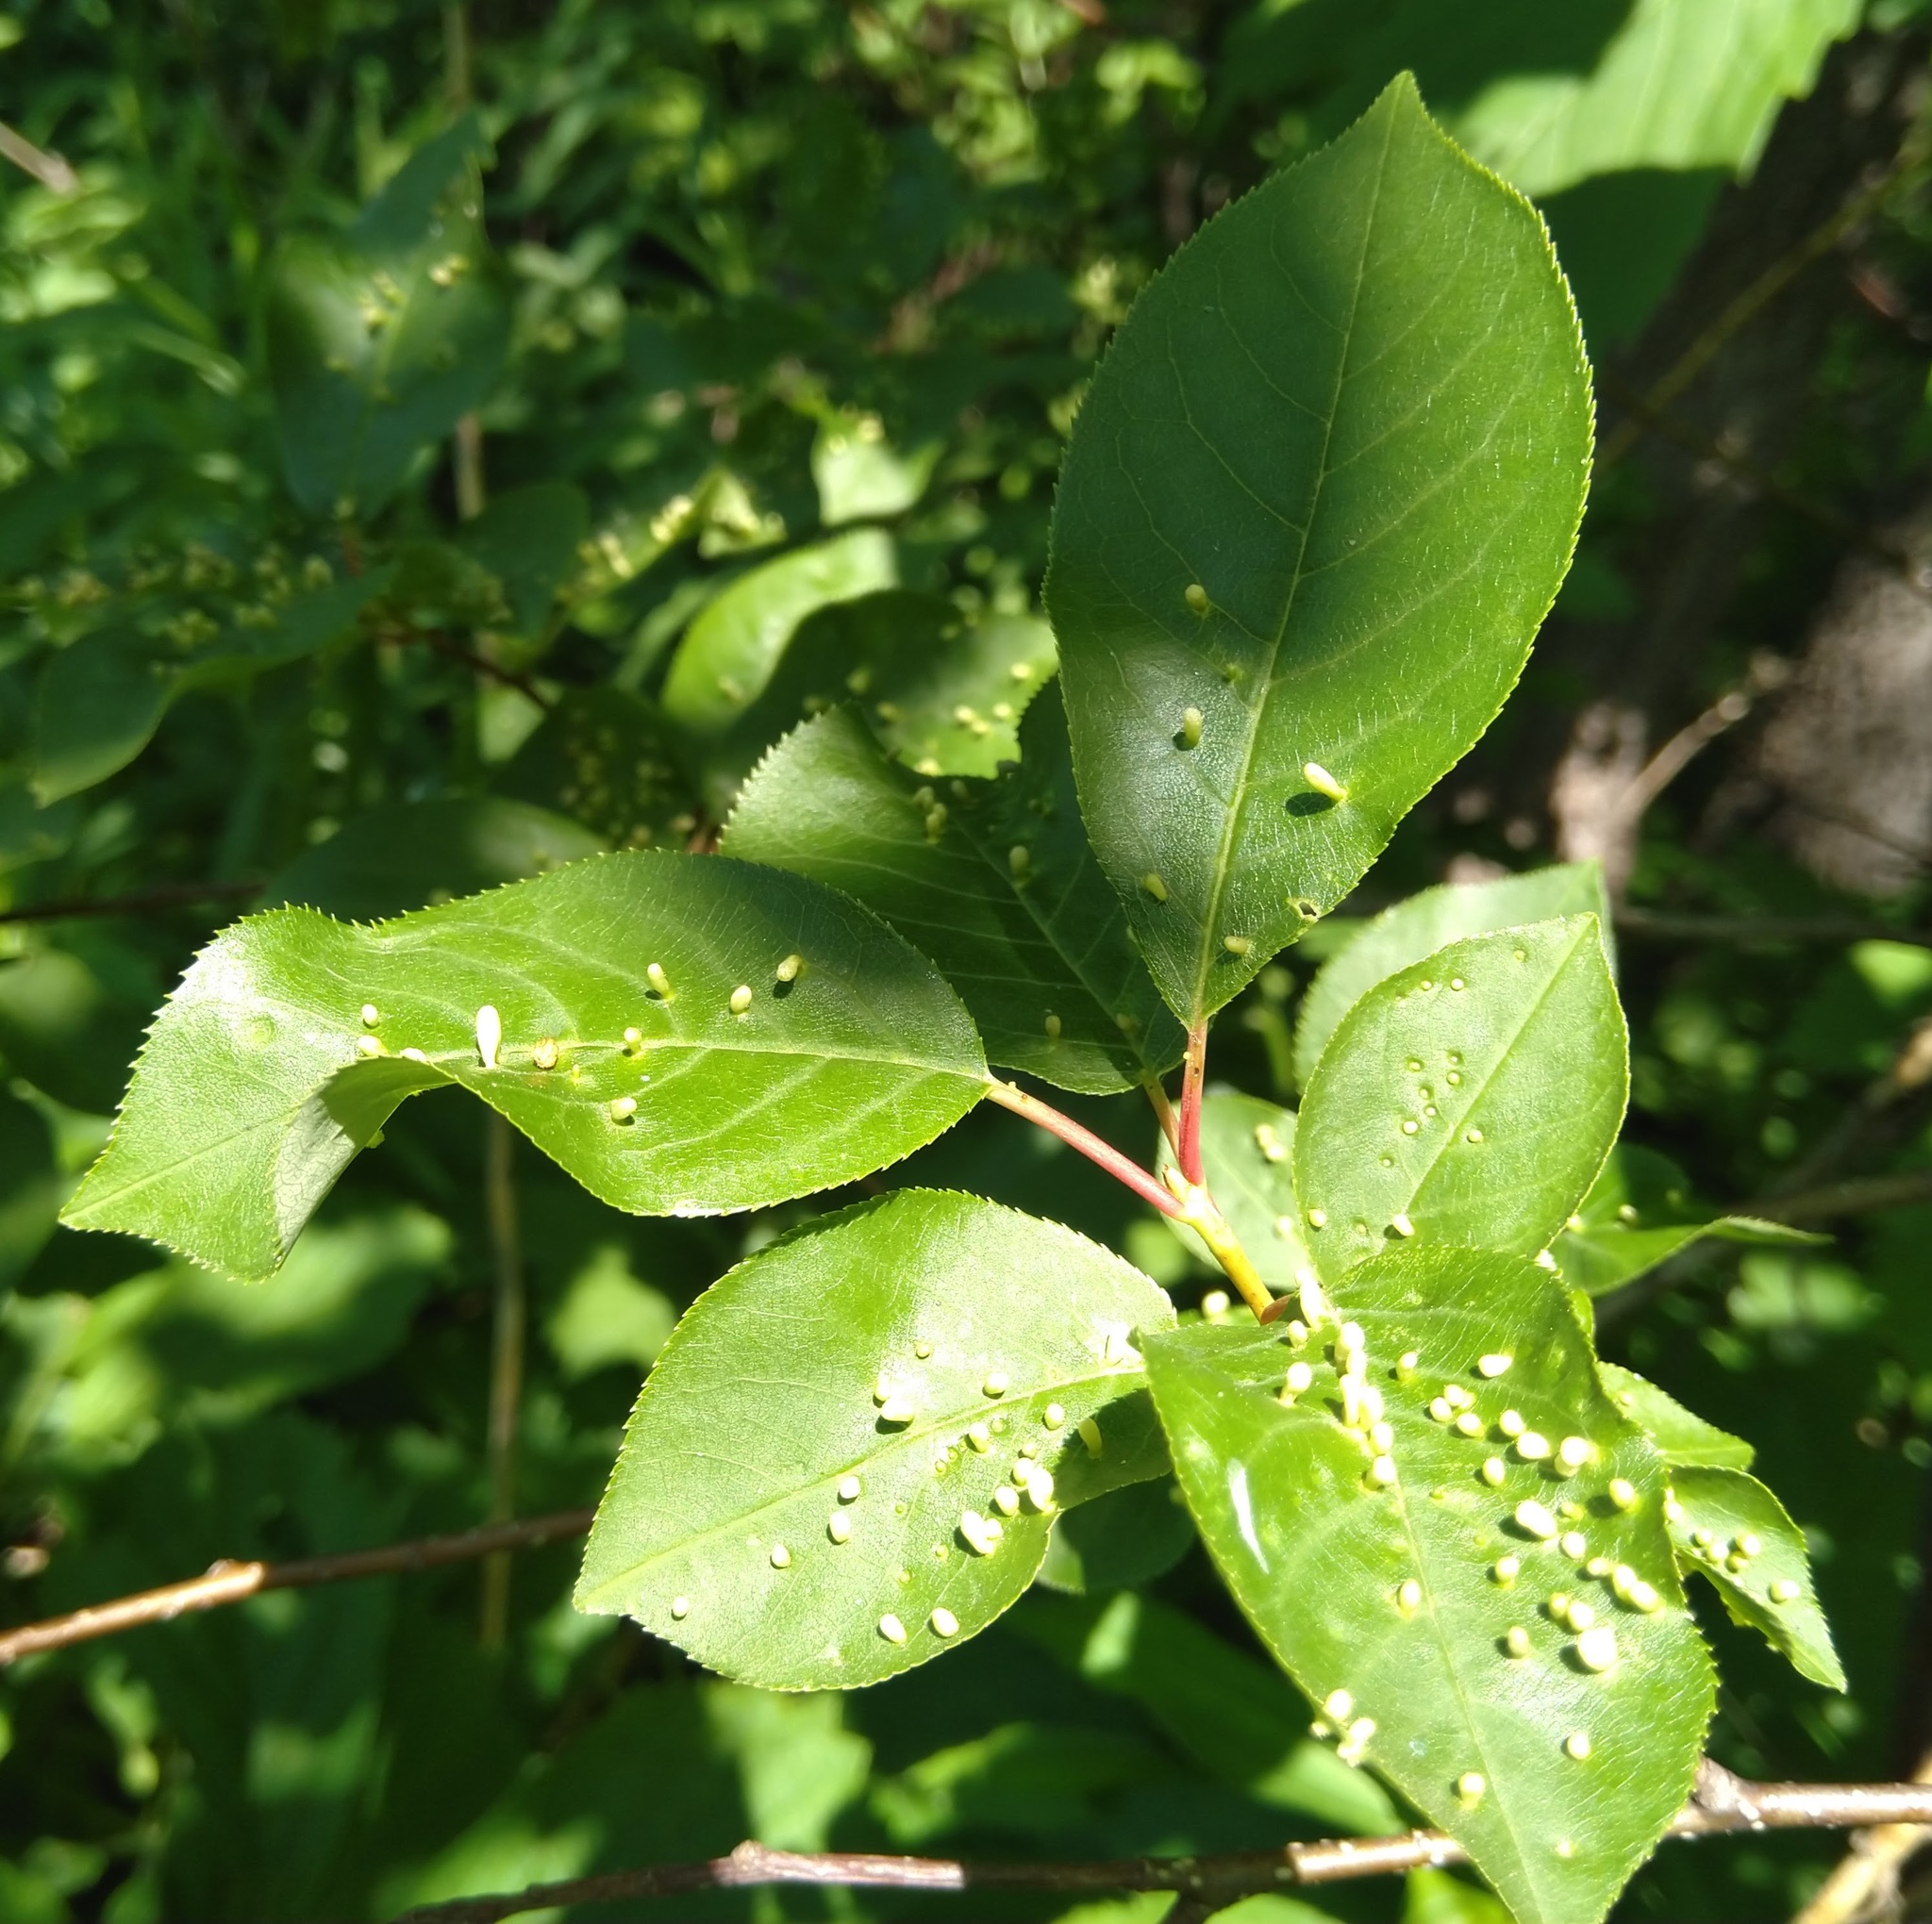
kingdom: Animalia
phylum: Arthropoda
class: Arachnida
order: Trombidiformes
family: Eriophyidae
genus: Eriophyes
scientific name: Eriophyes emarginatae
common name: Plum leaf gall mite
